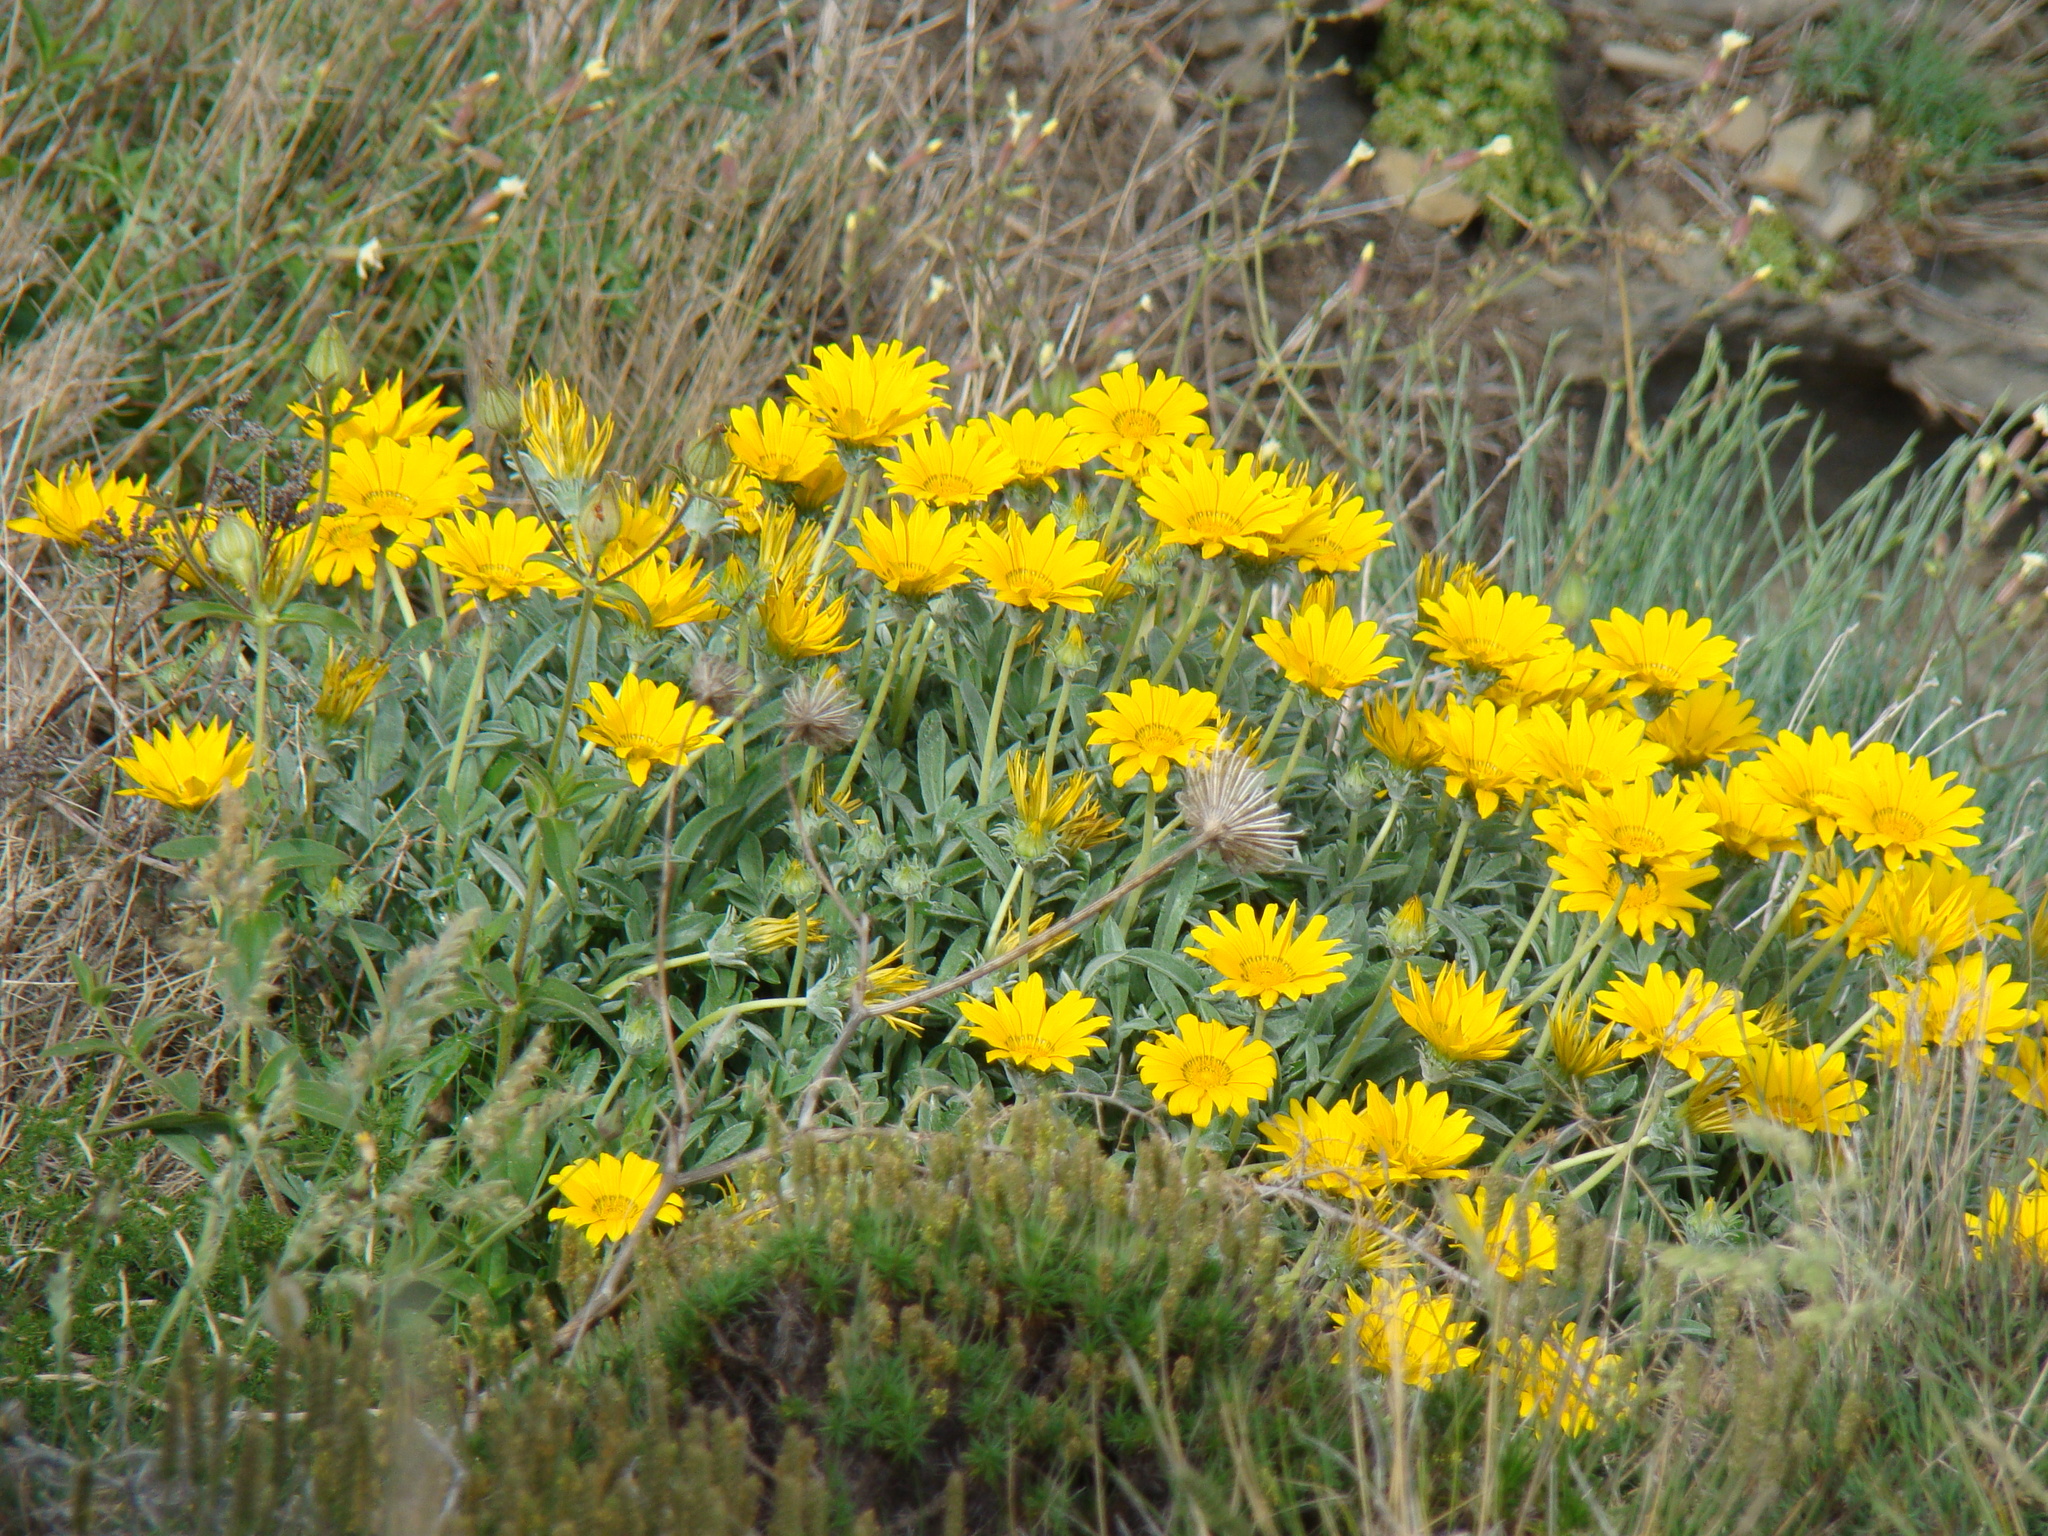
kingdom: Plantae
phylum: Tracheophyta
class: Magnoliopsida
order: Asterales
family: Asteraceae
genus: Gazania
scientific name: Gazania rigens
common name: Treasureflower
